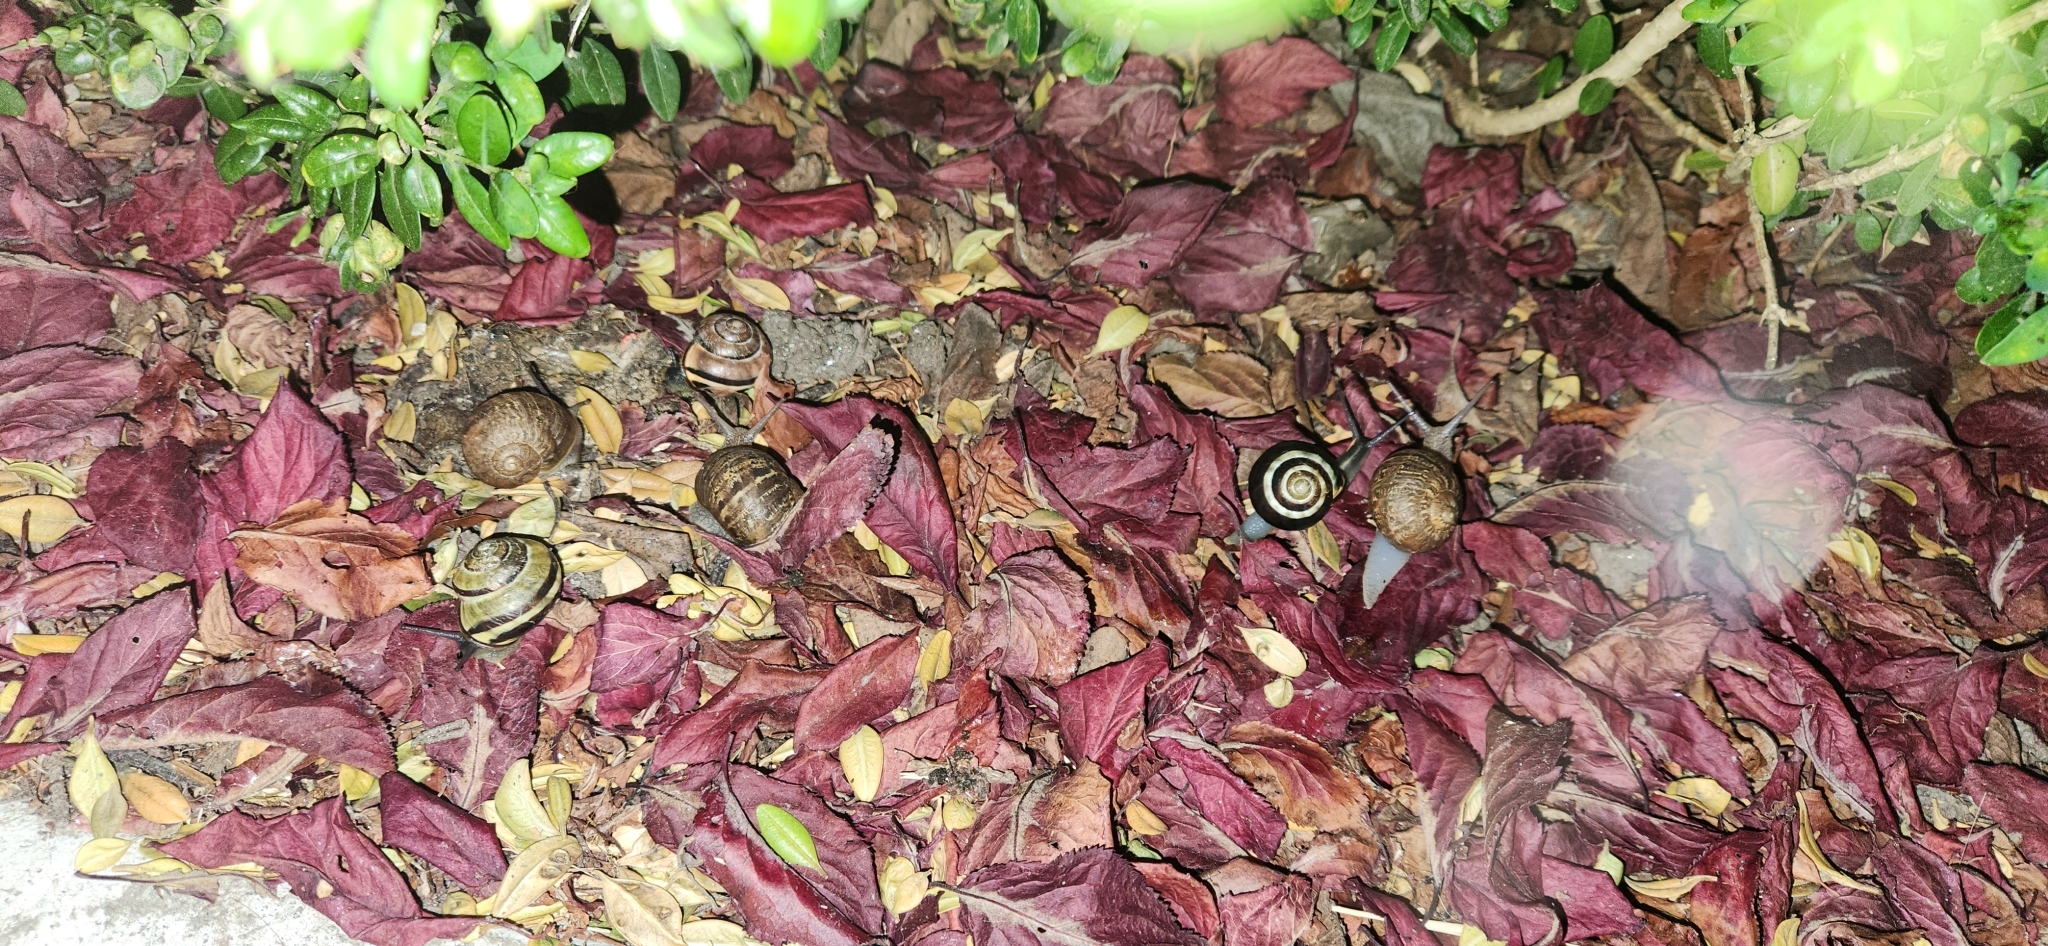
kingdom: Animalia
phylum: Mollusca
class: Gastropoda
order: Stylommatophora
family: Helicidae
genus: Cornu
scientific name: Cornu aspersum
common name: Brown garden snail
